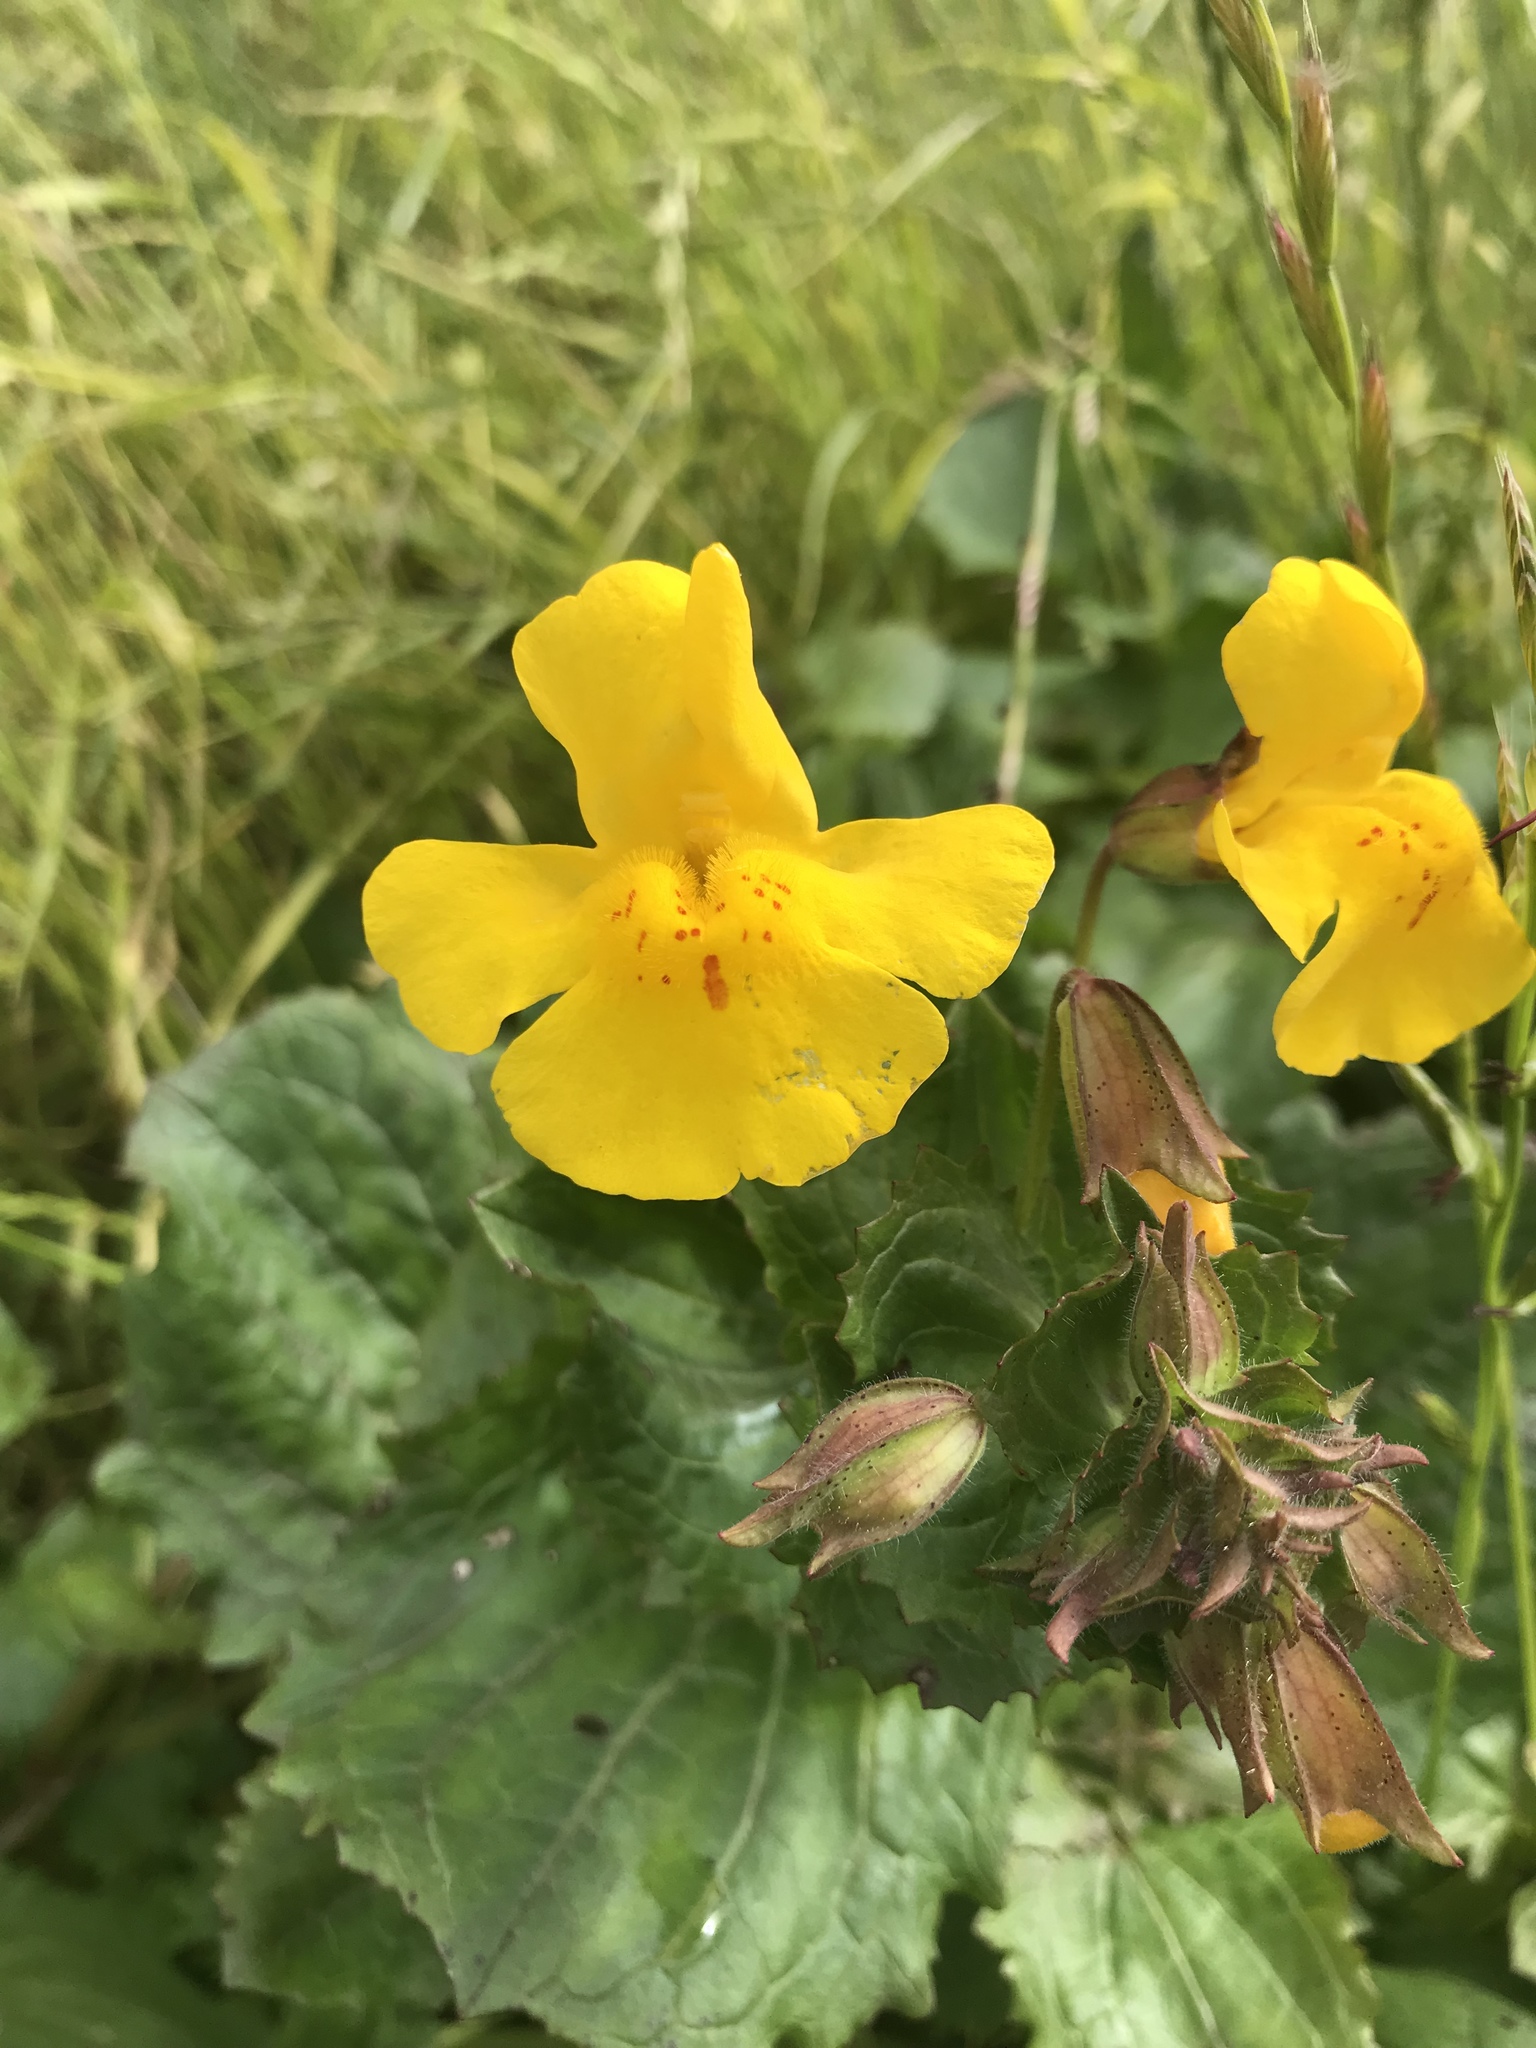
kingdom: Plantae
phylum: Tracheophyta
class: Magnoliopsida
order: Lamiales
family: Phrymaceae
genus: Erythranthe
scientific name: Erythranthe guttata
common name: Monkeyflower
